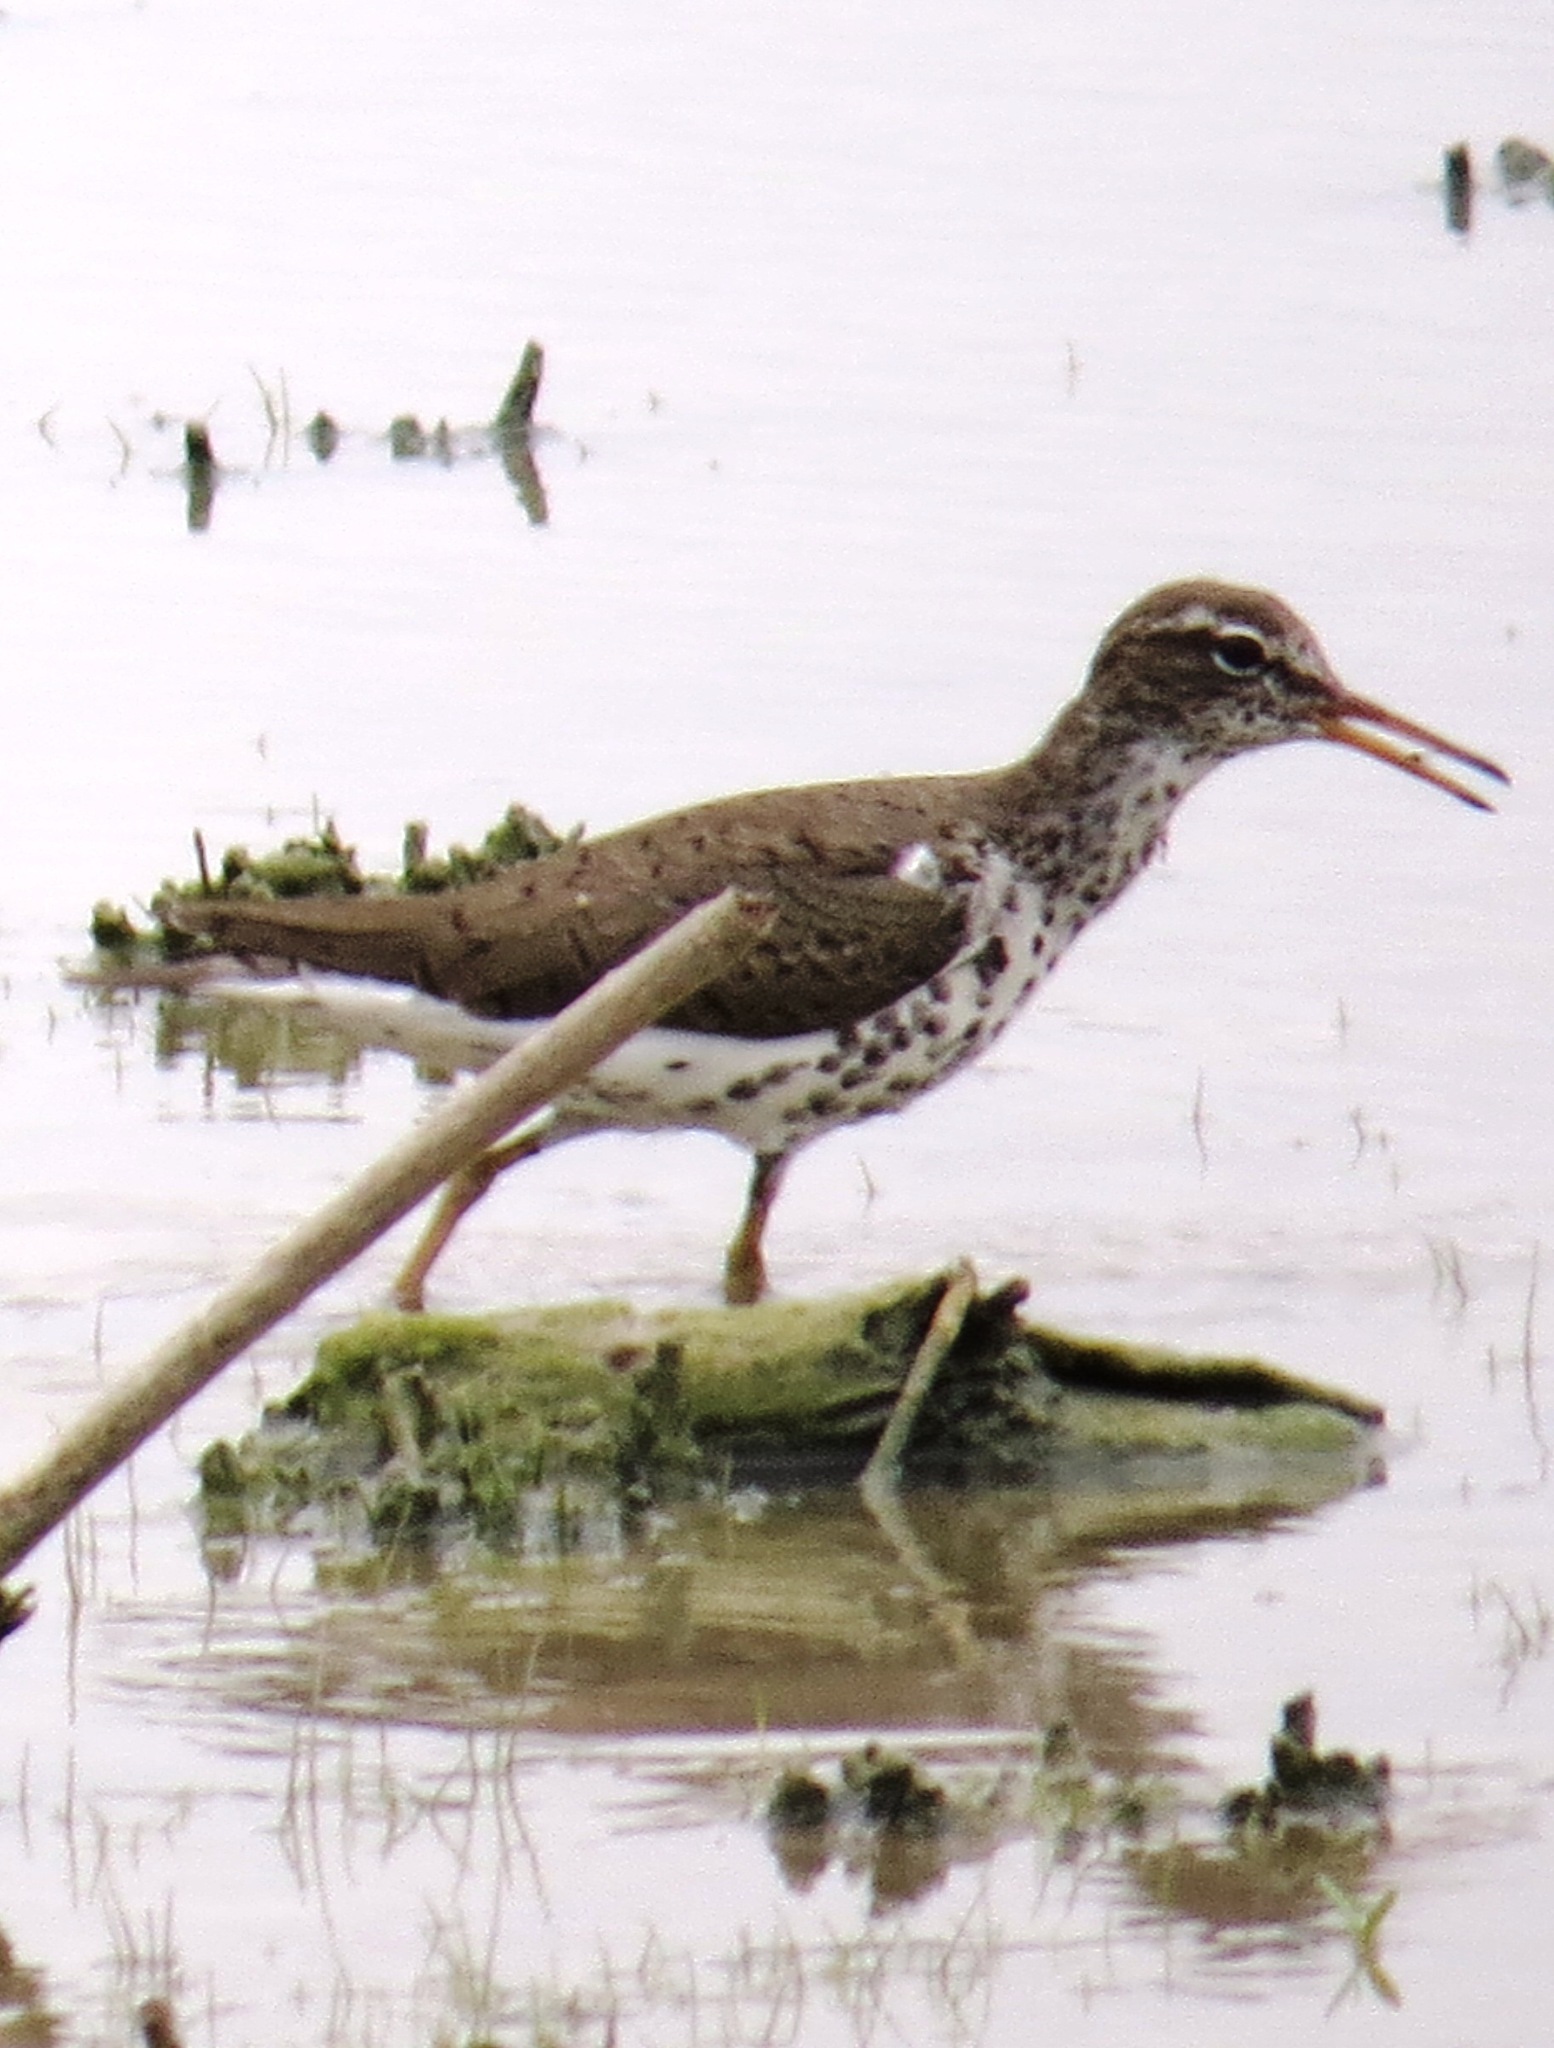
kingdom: Animalia
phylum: Chordata
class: Aves
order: Charadriiformes
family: Scolopacidae
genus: Actitis
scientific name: Actitis macularius
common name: Spotted sandpiper
